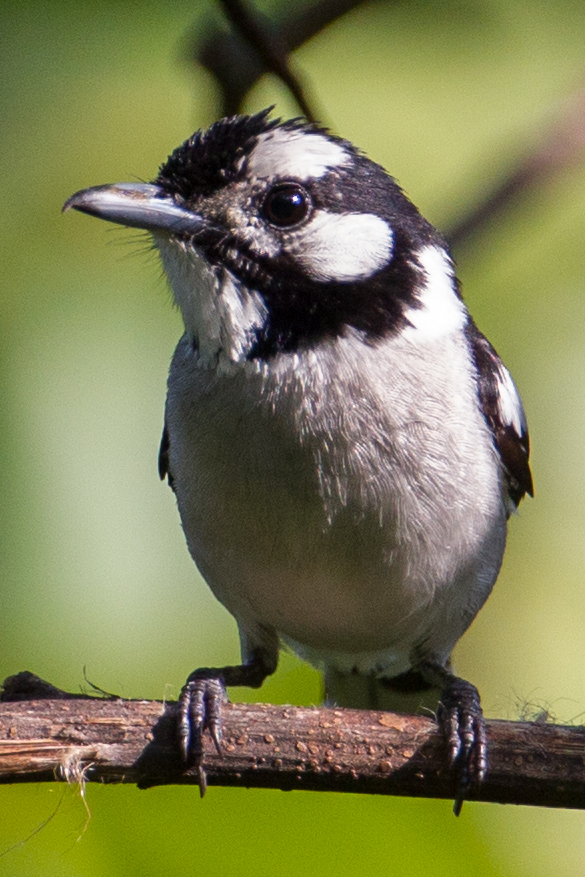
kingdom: Animalia
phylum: Chordata
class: Aves
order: Passeriformes
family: Monarchidae
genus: Carterornis
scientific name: Carterornis pileatus
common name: White-naped monarch
